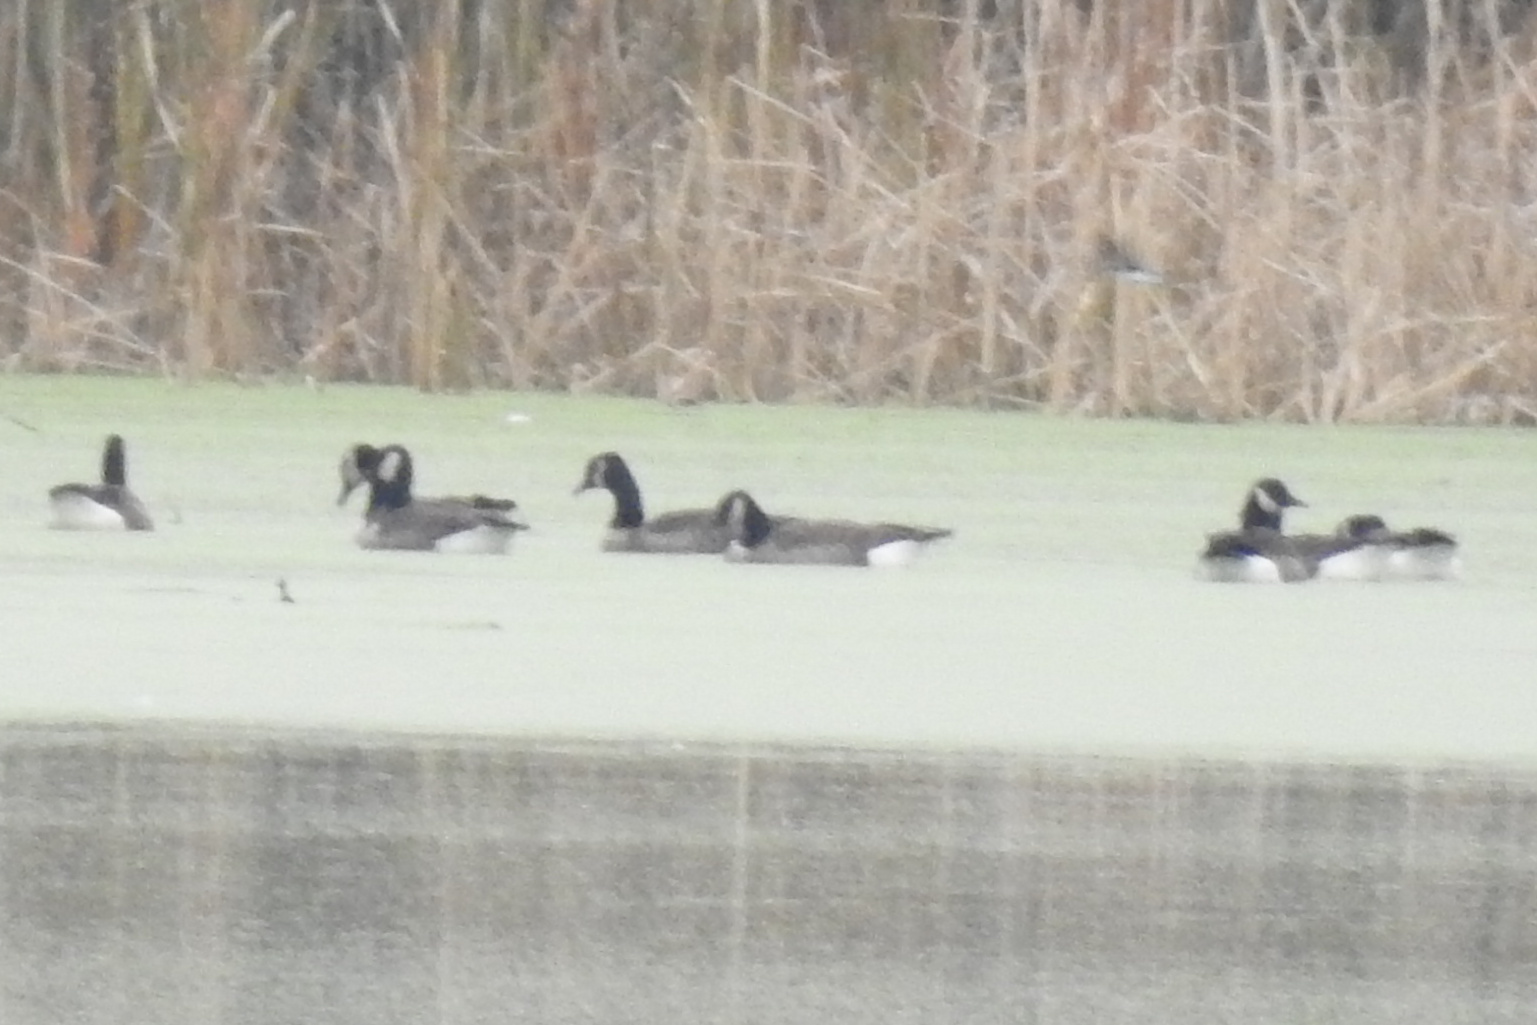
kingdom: Animalia
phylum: Chordata
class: Aves
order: Anseriformes
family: Anatidae
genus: Branta
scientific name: Branta canadensis
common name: Canada goose
